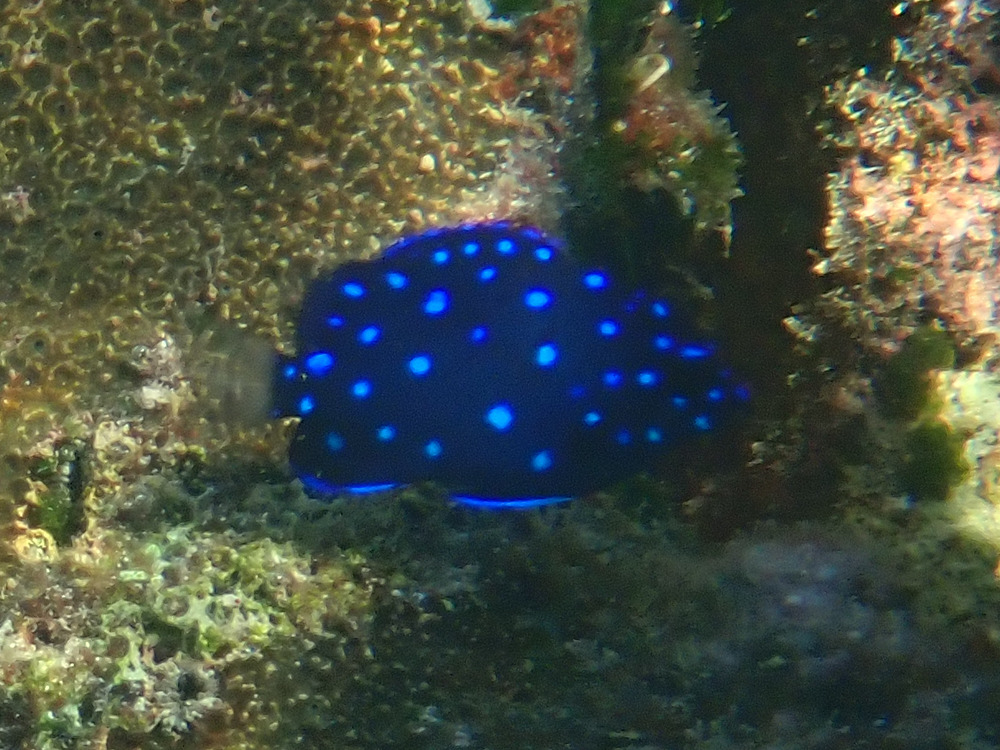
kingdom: Animalia
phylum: Chordata
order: Perciformes
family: Pomacentridae
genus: Microspathodon
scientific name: Microspathodon chrysurus
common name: Yellowtail damselfish
